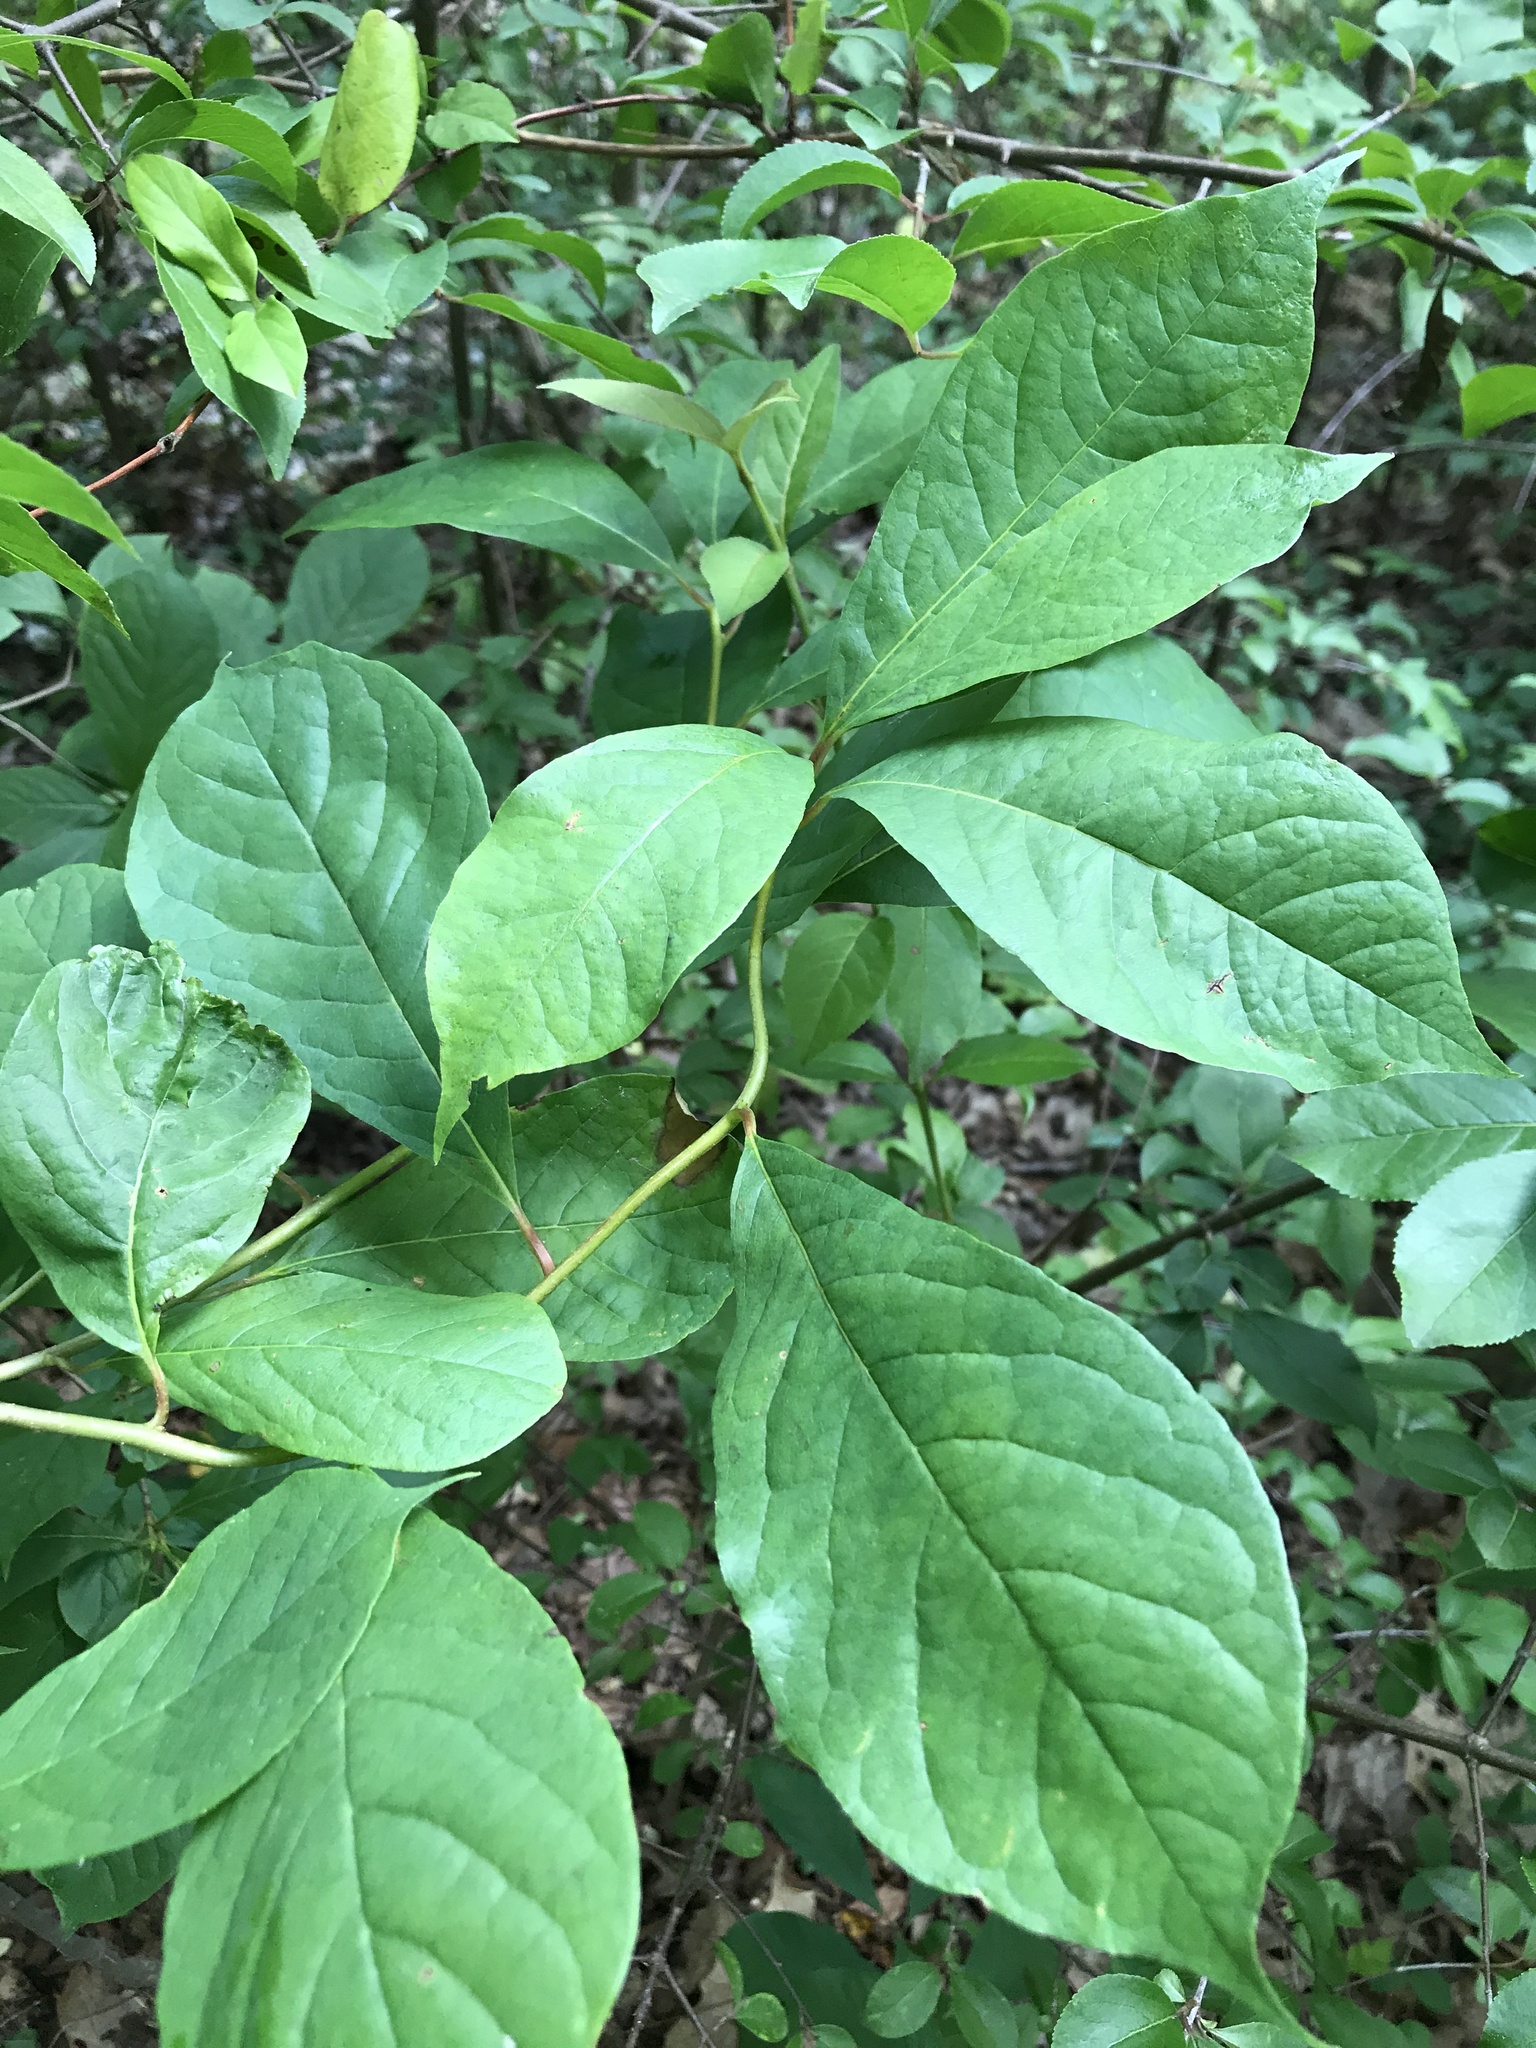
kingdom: Plantae
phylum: Tracheophyta
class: Magnoliopsida
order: Cornales
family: Nyssaceae
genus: Nyssa
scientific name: Nyssa sylvatica
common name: Black tupelo
